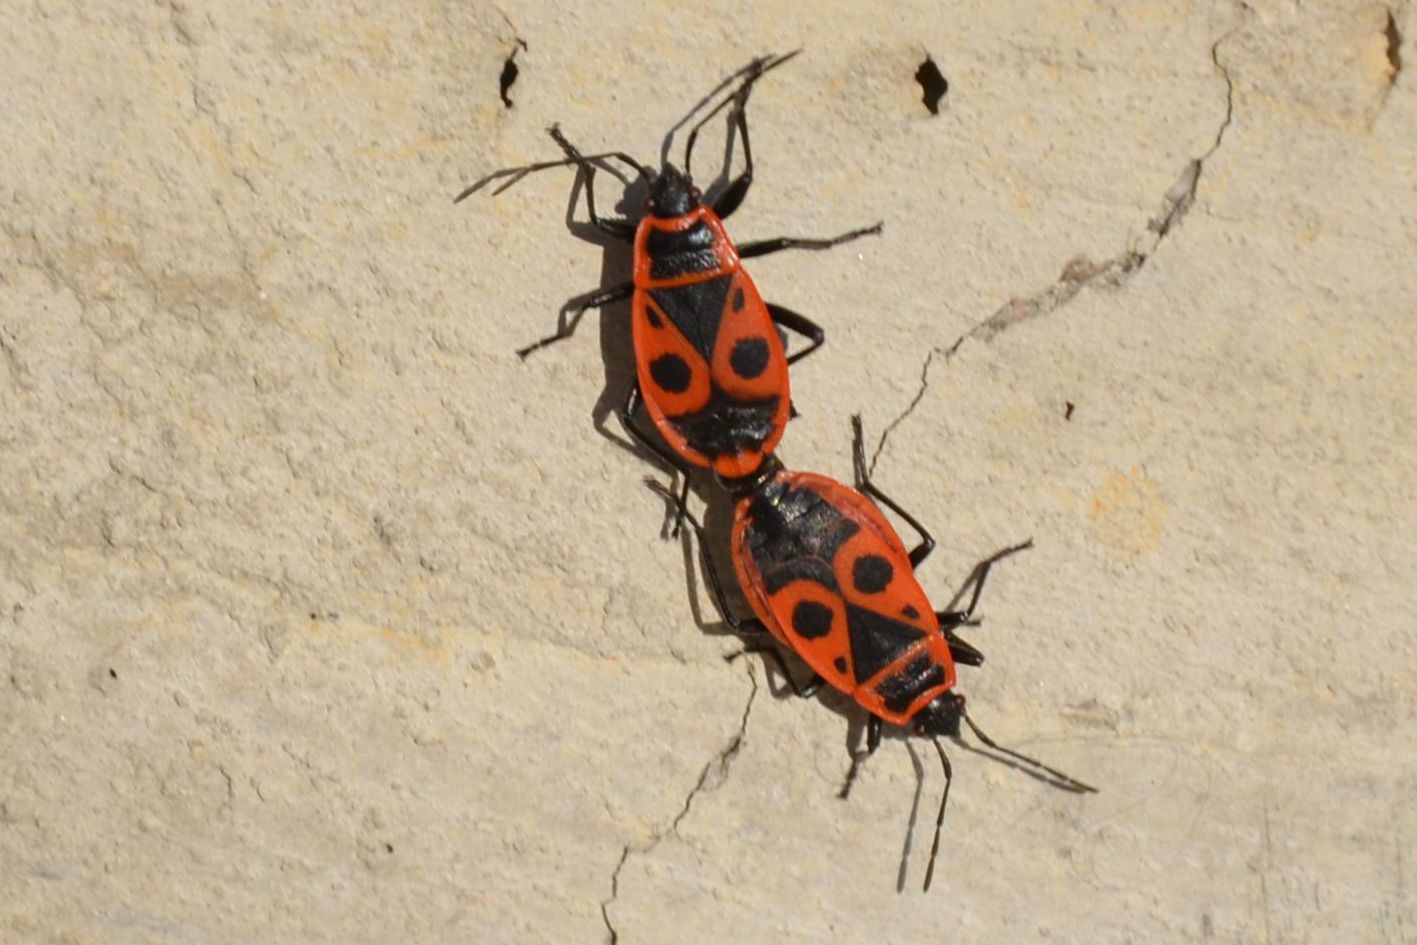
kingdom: Animalia
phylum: Arthropoda
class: Insecta
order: Hemiptera
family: Pyrrhocoridae
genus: Pyrrhocoris
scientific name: Pyrrhocoris apterus
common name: Firebug
